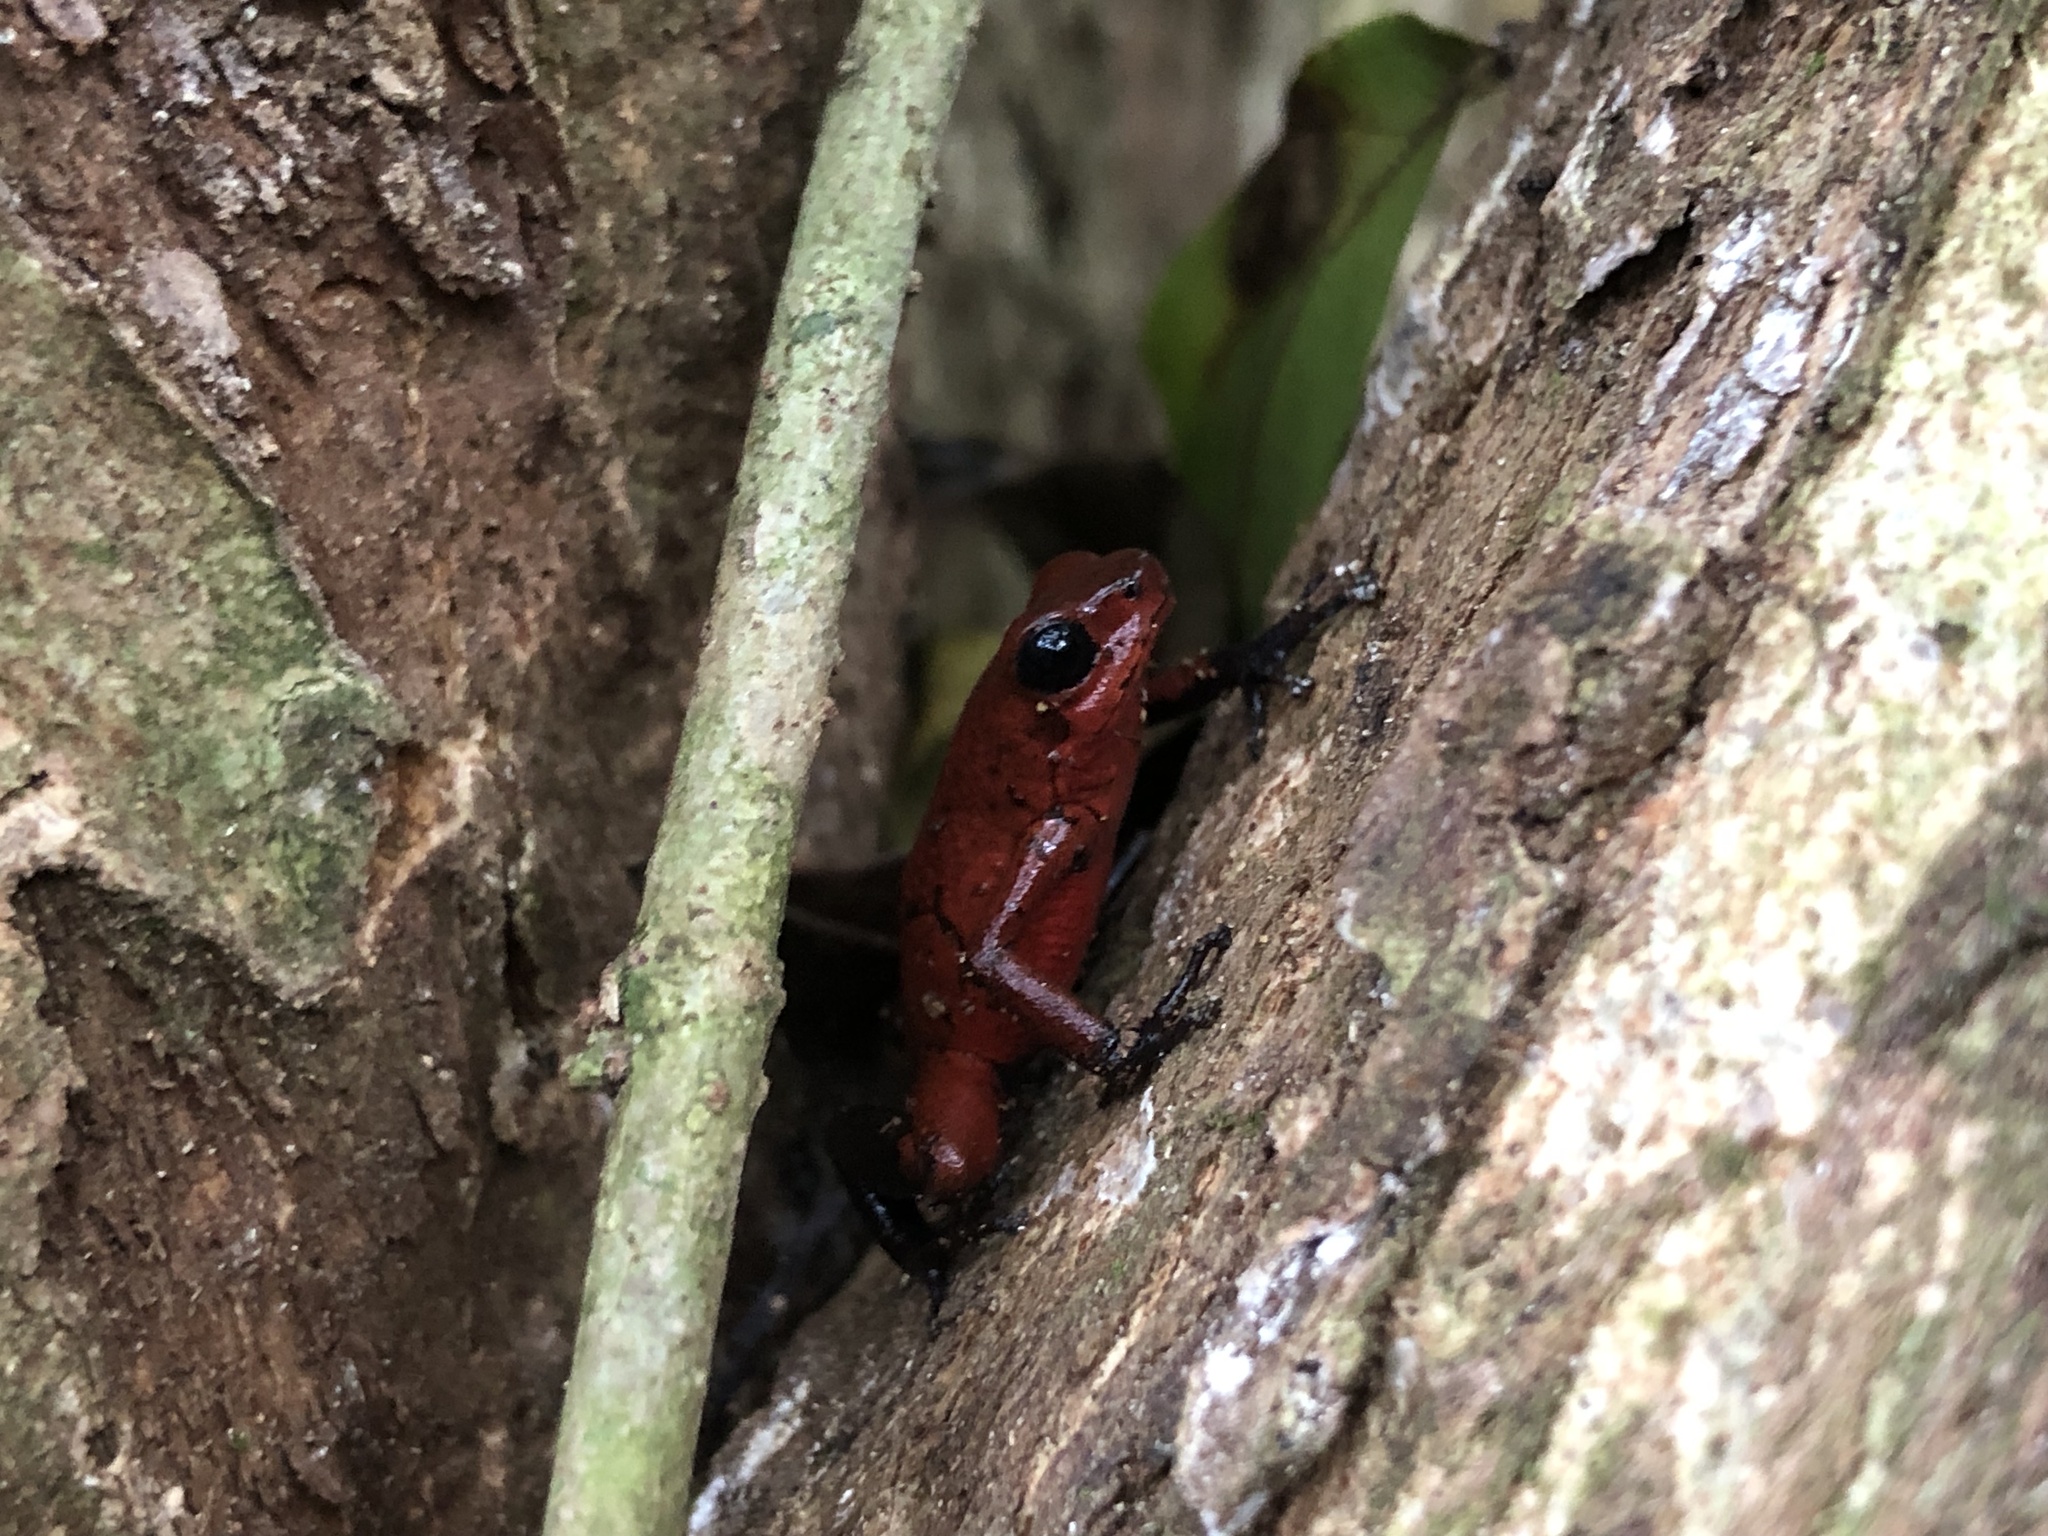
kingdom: Animalia
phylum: Chordata
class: Amphibia
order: Anura
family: Dendrobatidae
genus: Oophaga
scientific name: Oophaga pumilio
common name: Flaming poison frog
